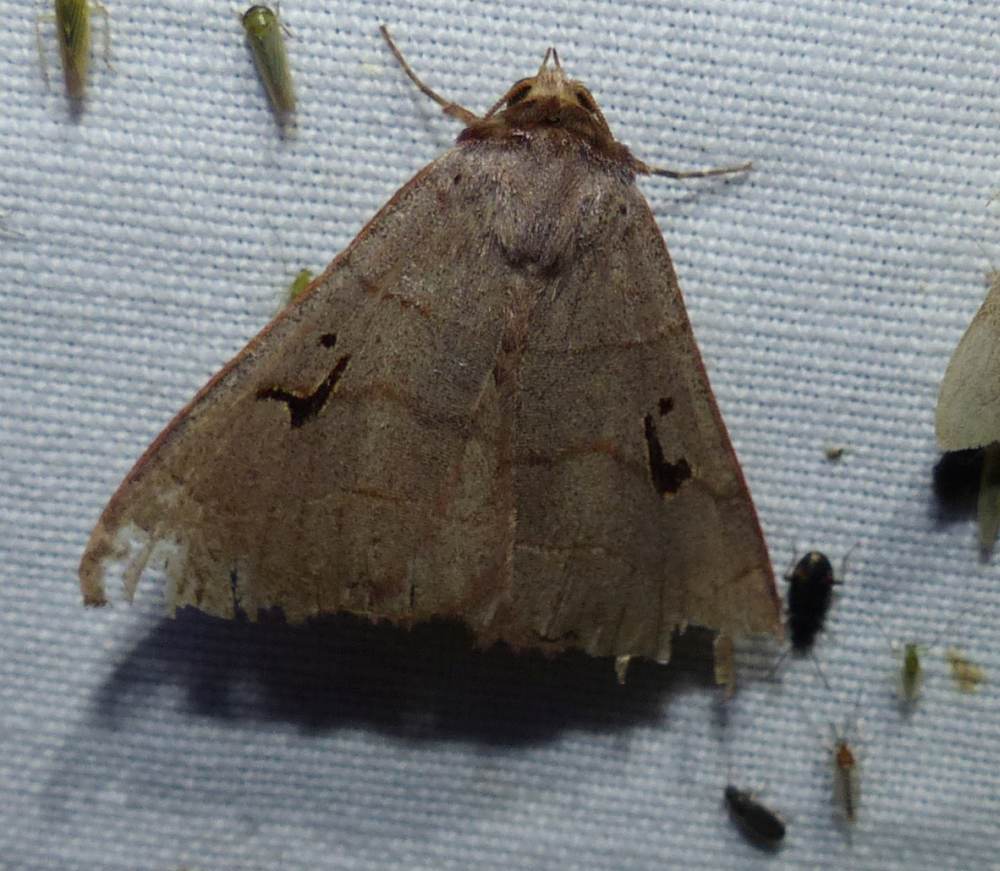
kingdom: Animalia
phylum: Arthropoda
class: Insecta
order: Lepidoptera
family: Erebidae
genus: Panopoda
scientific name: Panopoda carneicosta
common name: Brown panopoda moth
